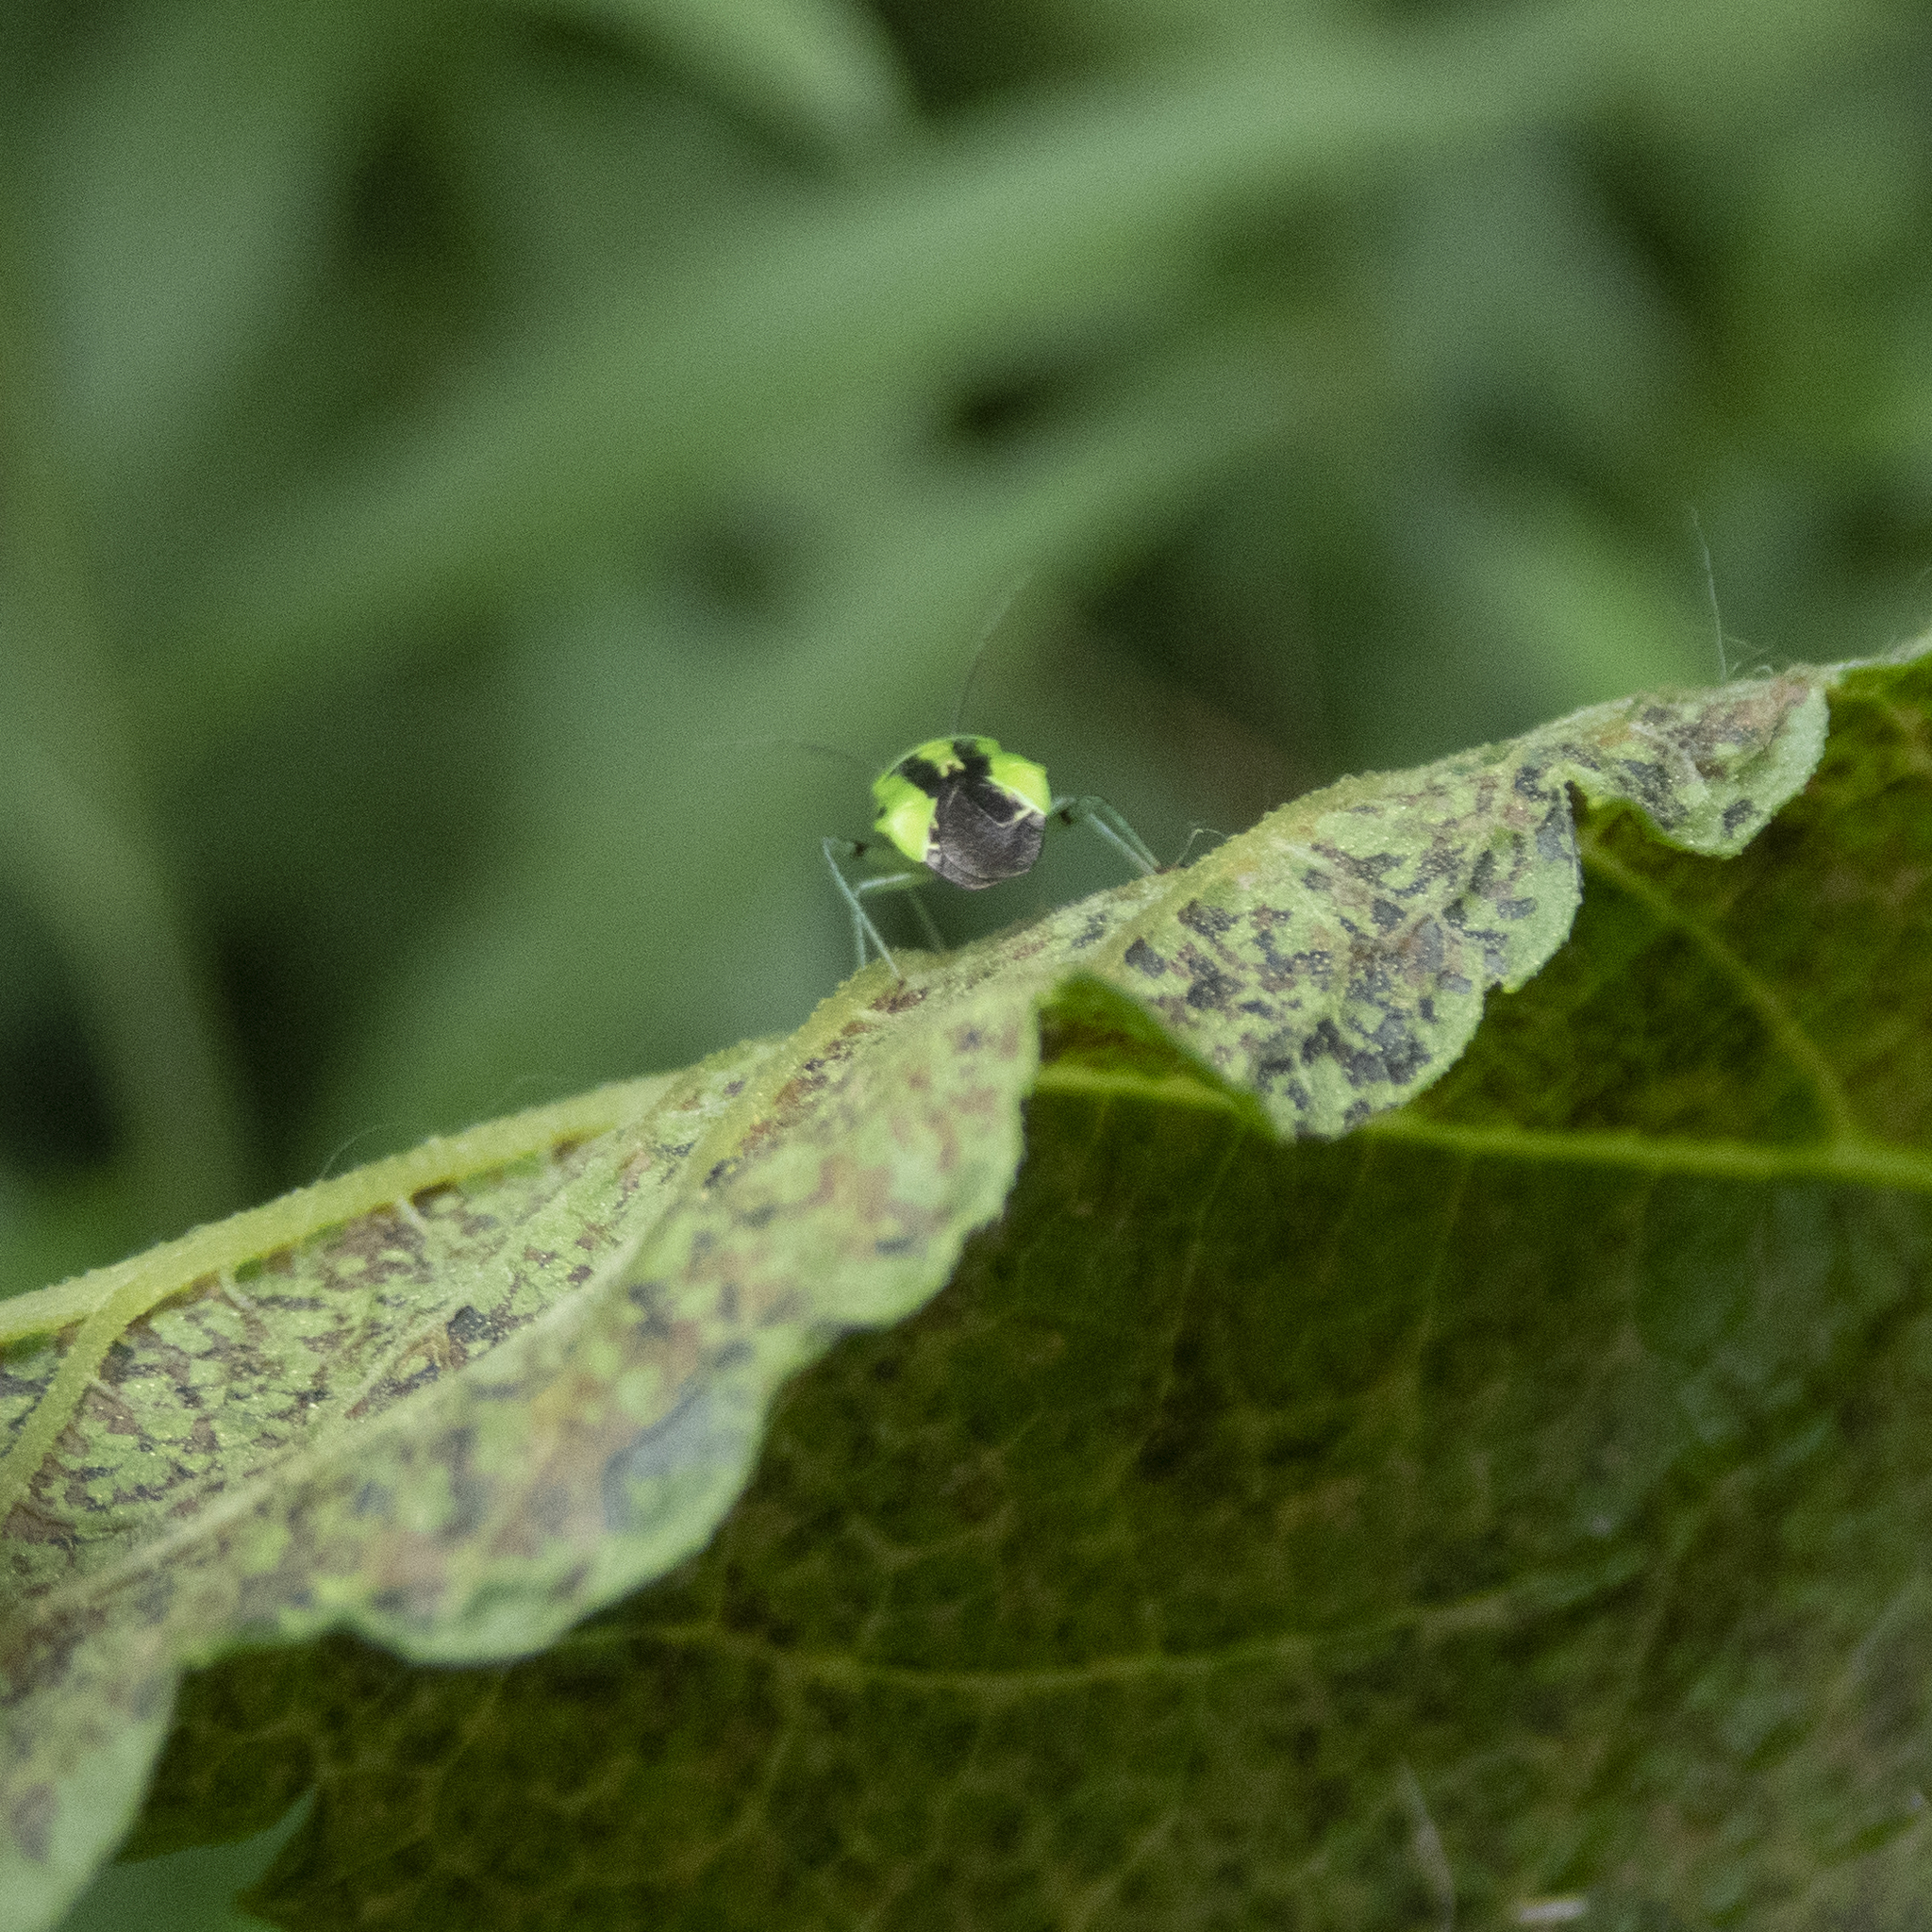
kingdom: Animalia
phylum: Arthropoda
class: Insecta
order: Hemiptera
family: Miridae
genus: Poecilocapsus
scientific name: Poecilocapsus lineatus
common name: Four-lined plant bug
